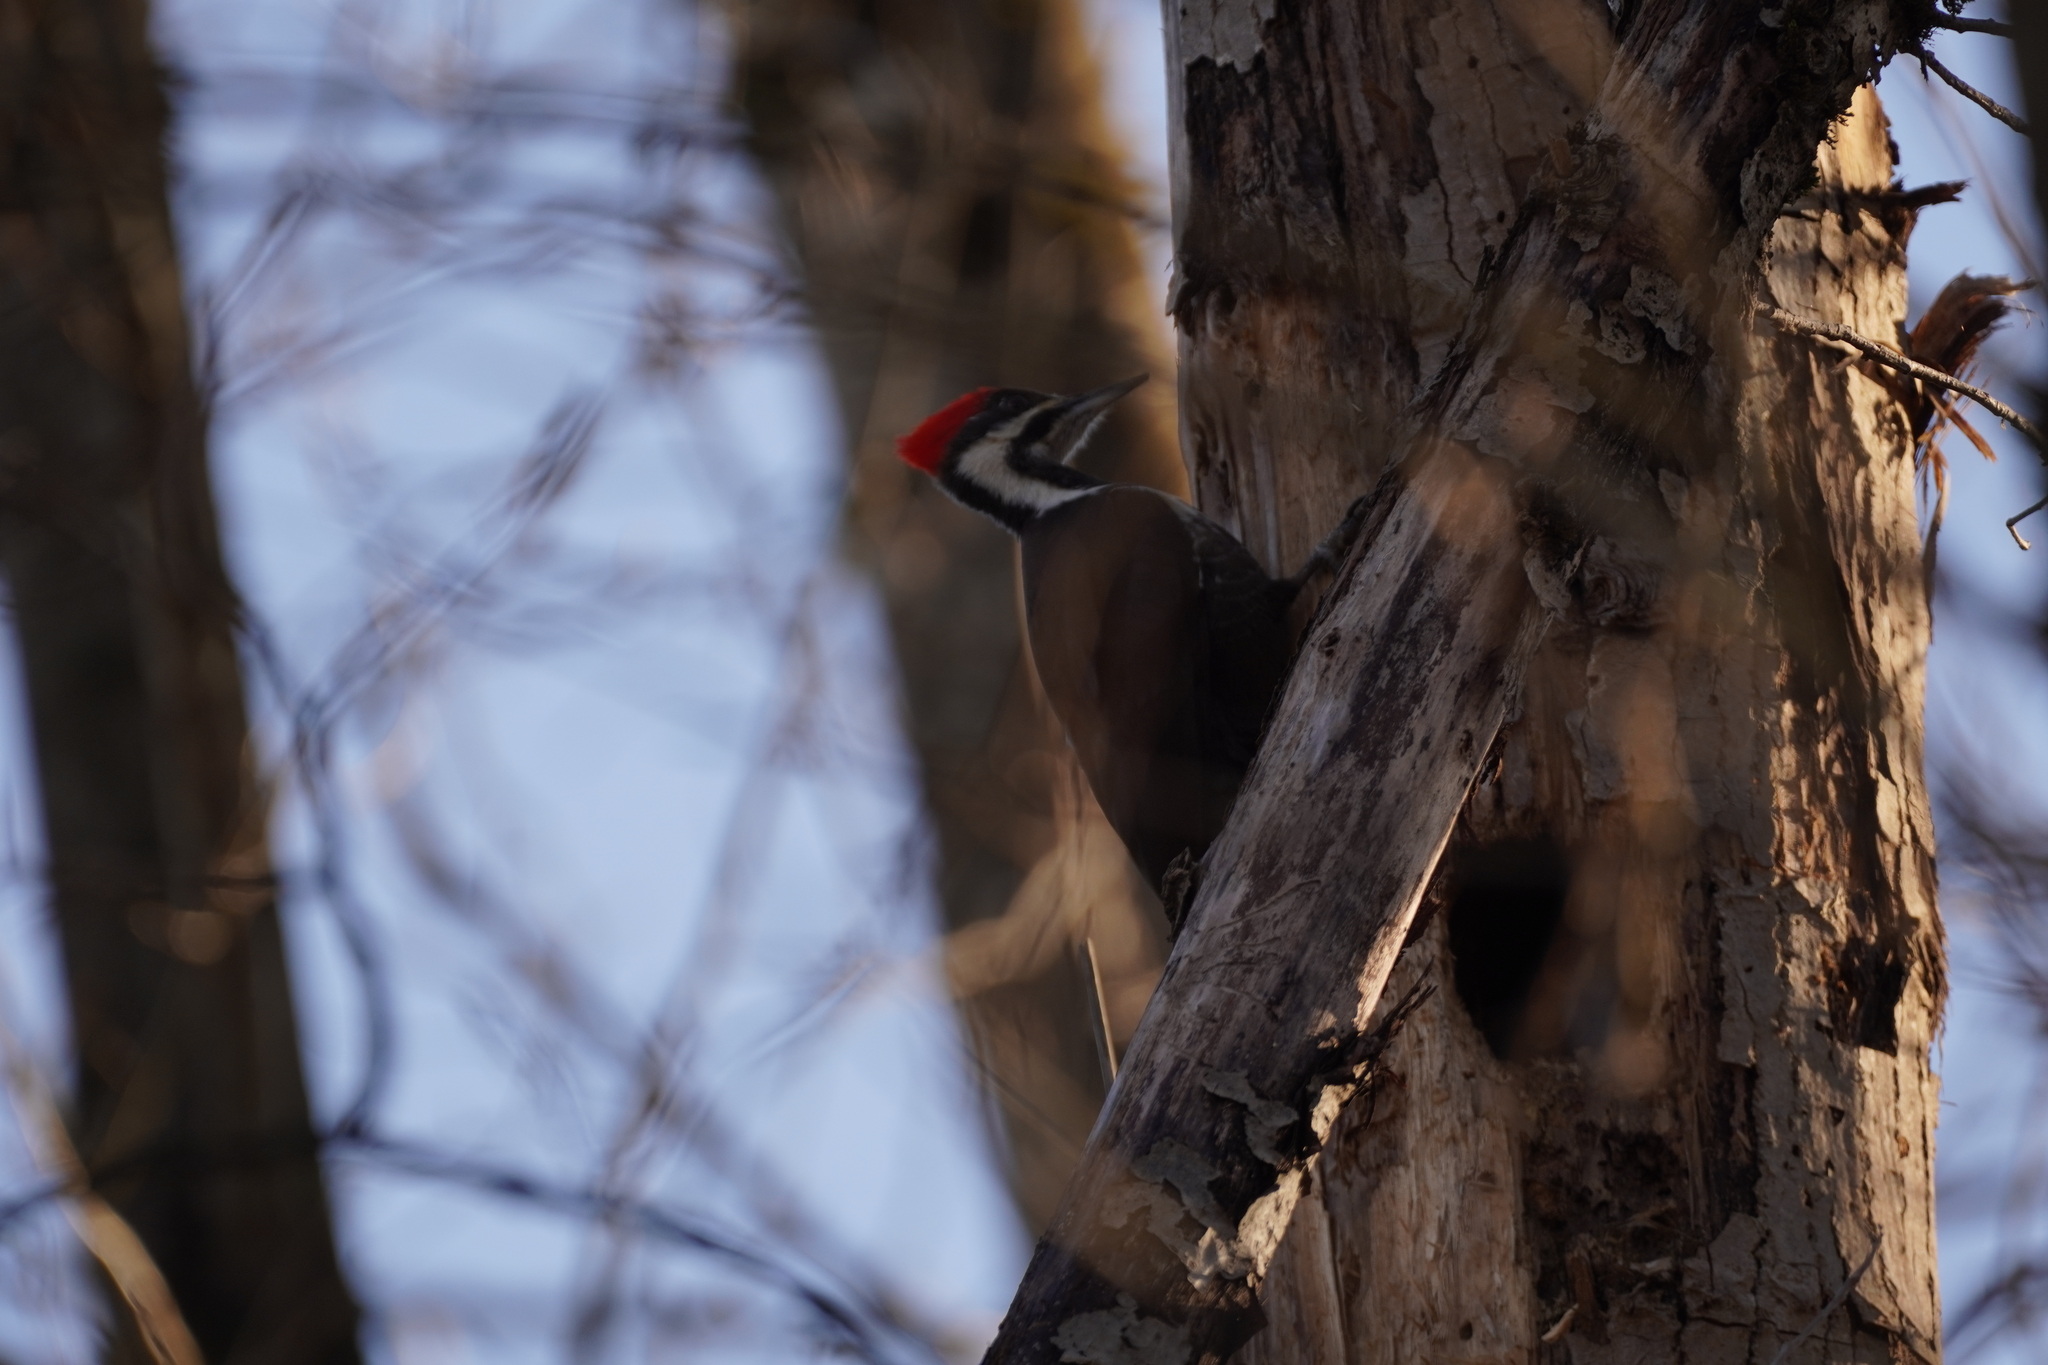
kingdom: Animalia
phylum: Chordata
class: Aves
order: Piciformes
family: Picidae
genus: Dryocopus
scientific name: Dryocopus pileatus
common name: Pileated woodpecker
